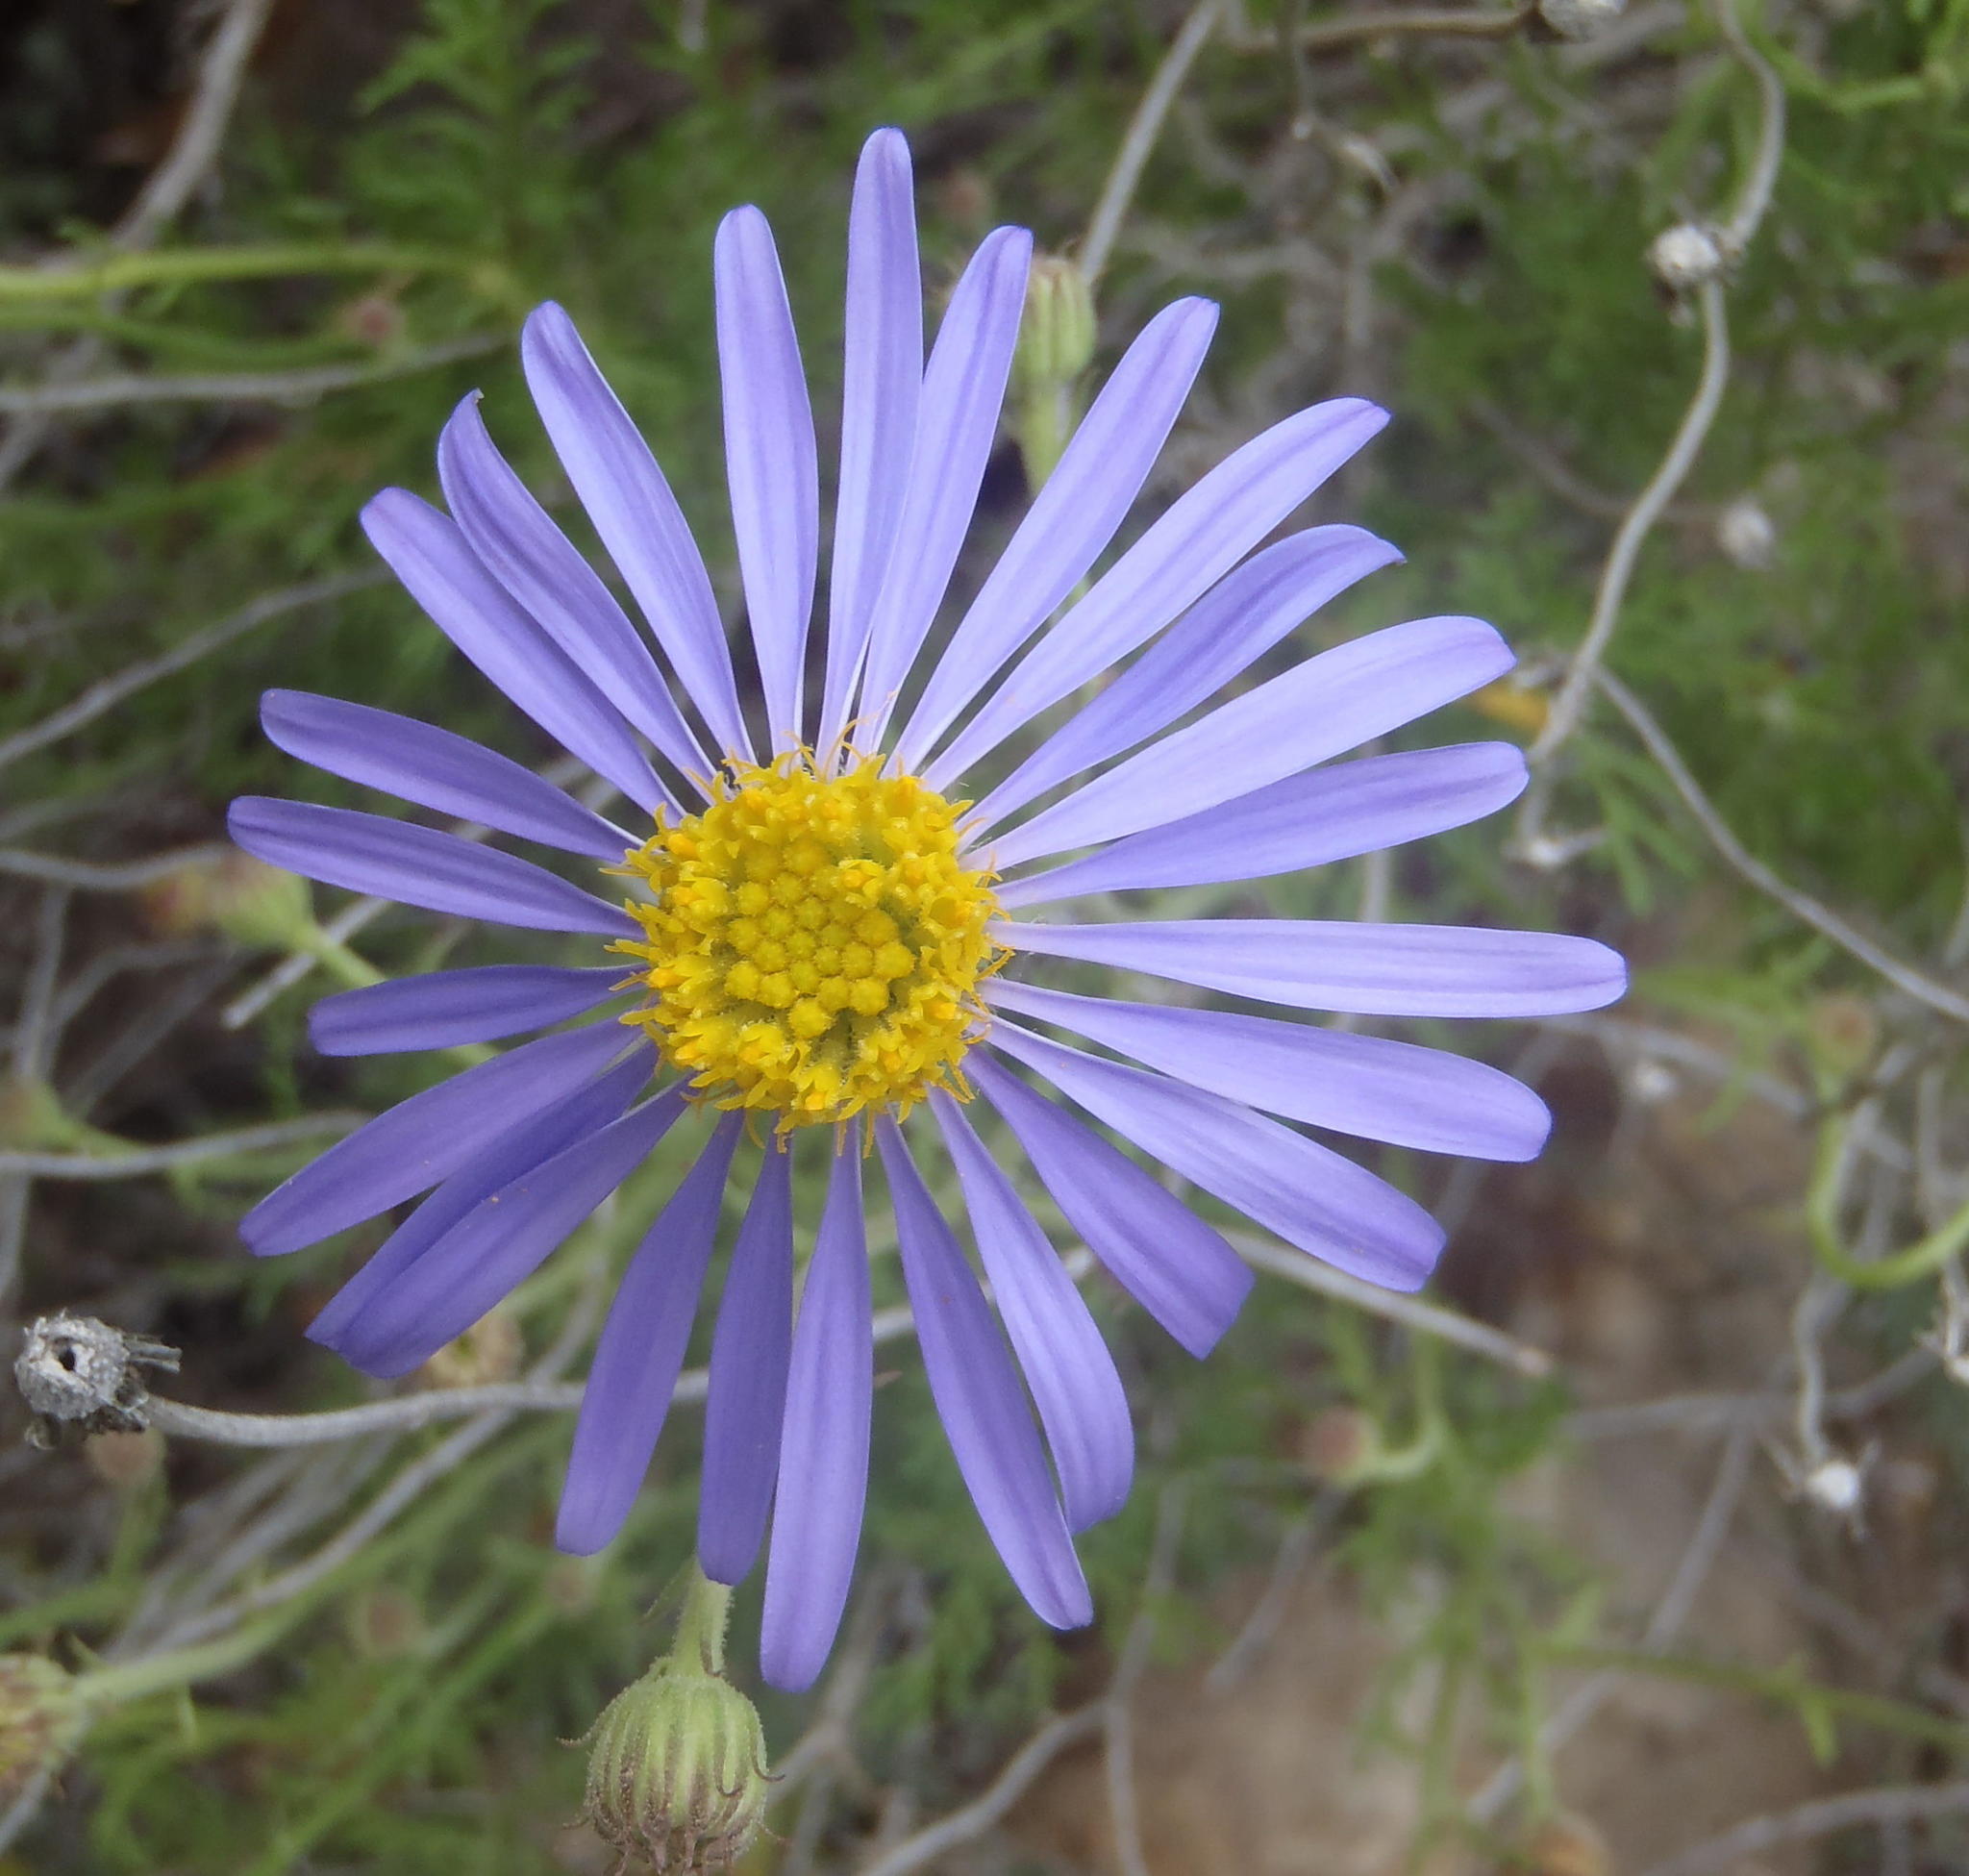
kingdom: Plantae
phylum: Tracheophyta
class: Magnoliopsida
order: Asterales
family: Asteraceae
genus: Garuleum
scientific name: Garuleum bipinnatum
